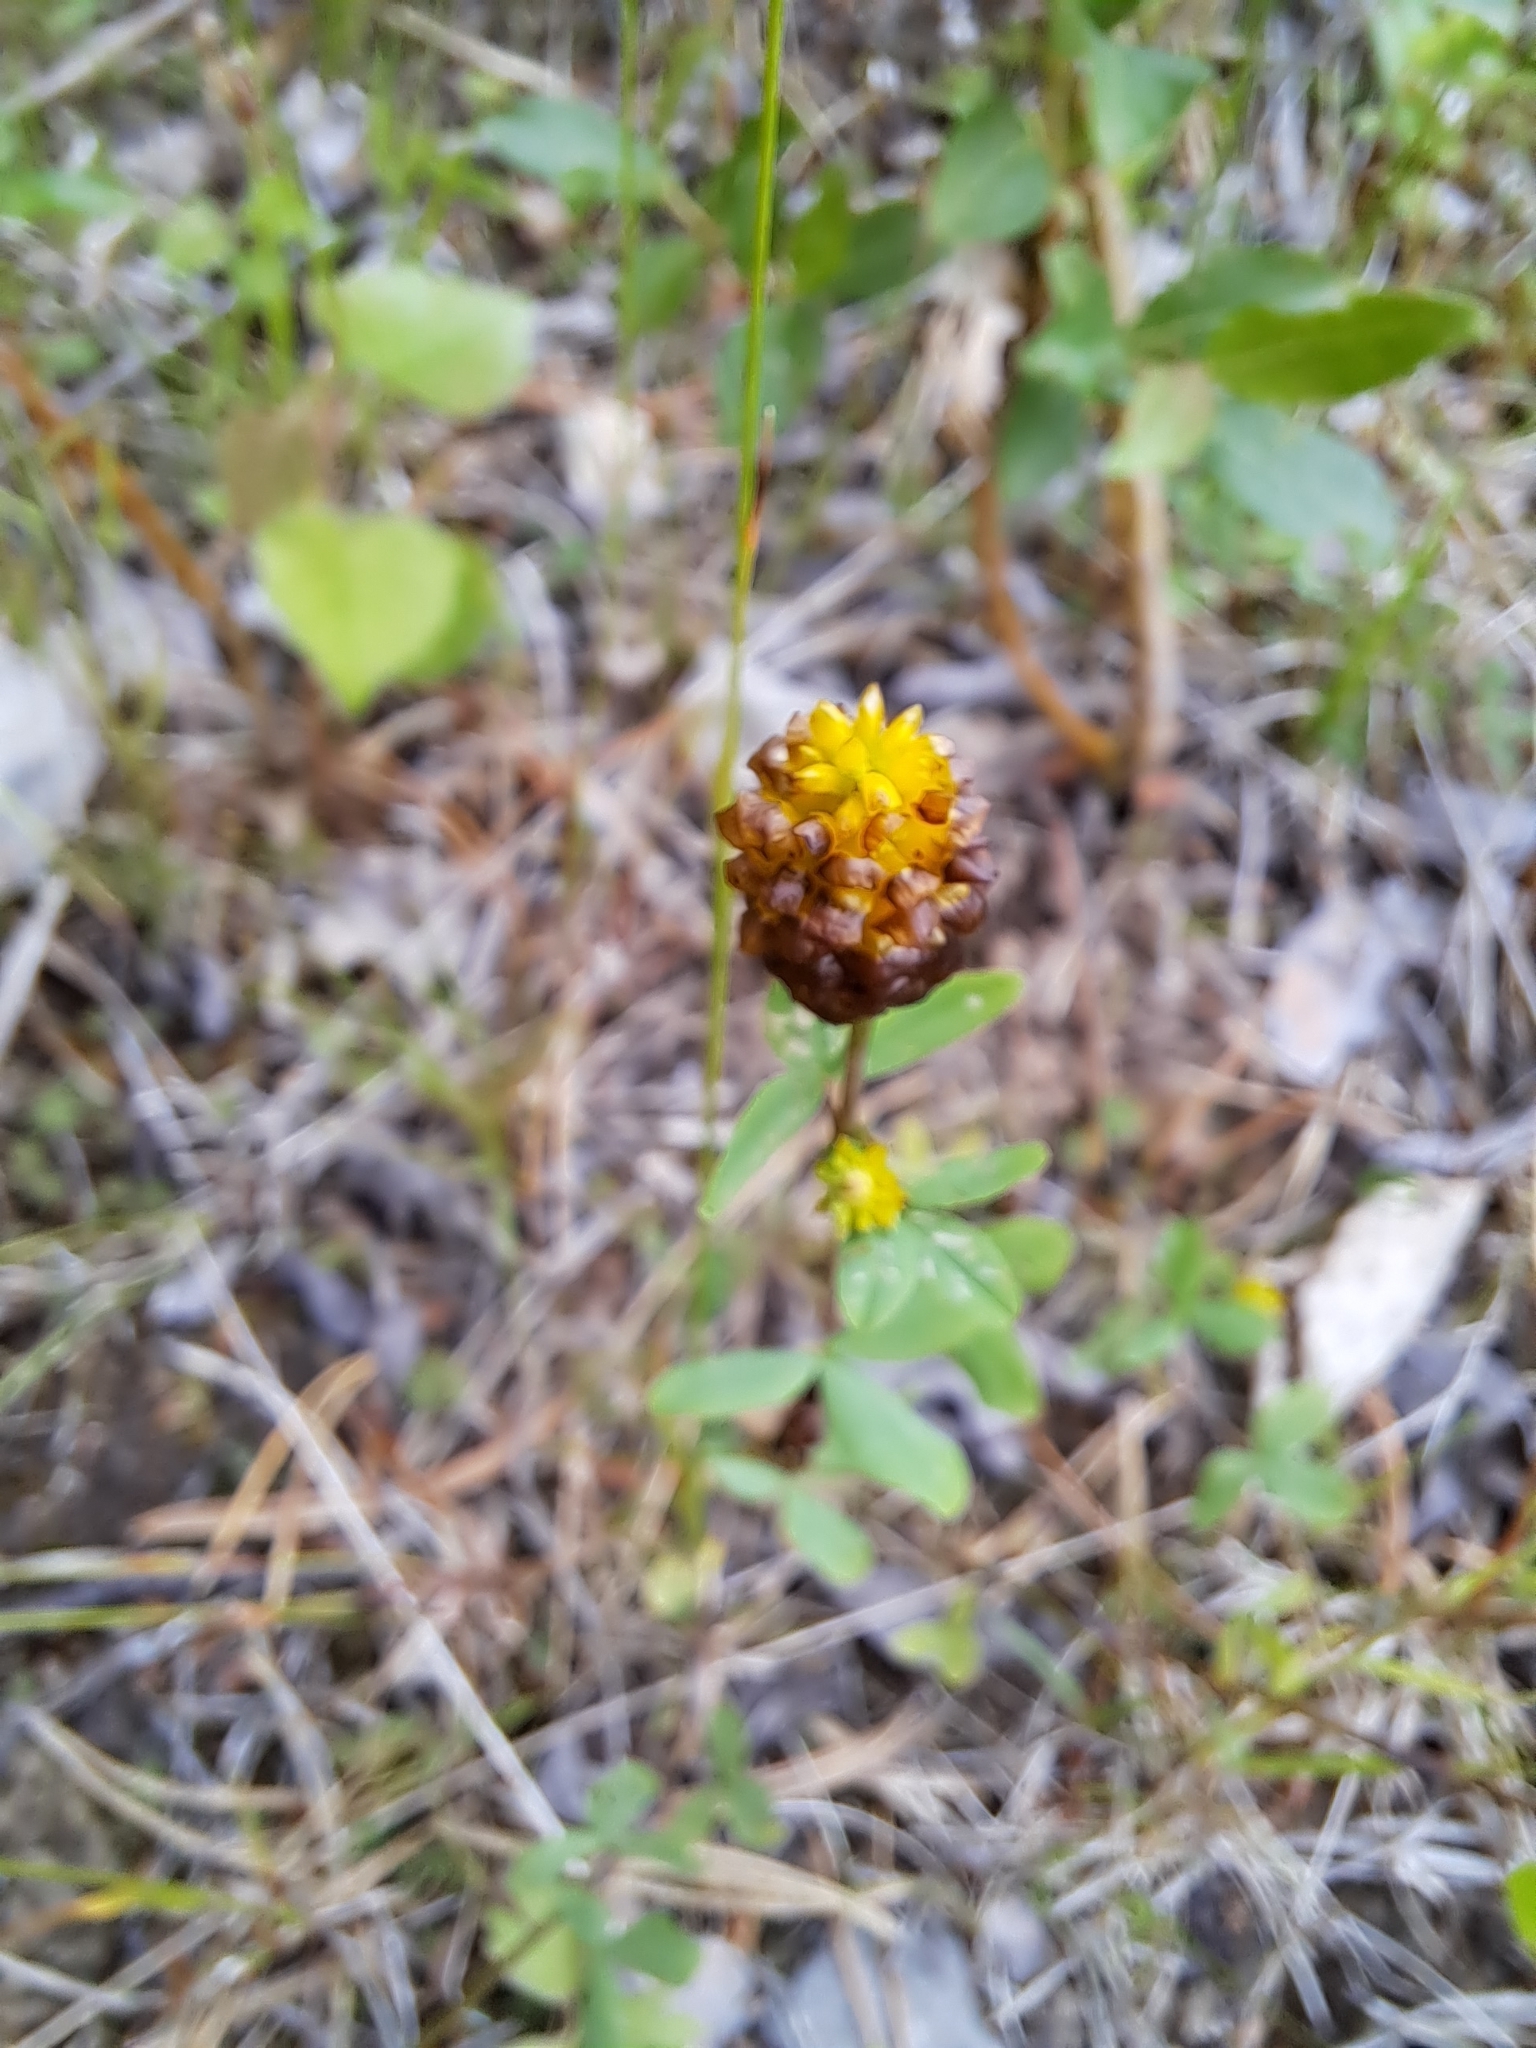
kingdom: Plantae
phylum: Tracheophyta
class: Magnoliopsida
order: Fabales
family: Fabaceae
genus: Trifolium
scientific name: Trifolium spadiceum
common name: Brown moor clover
